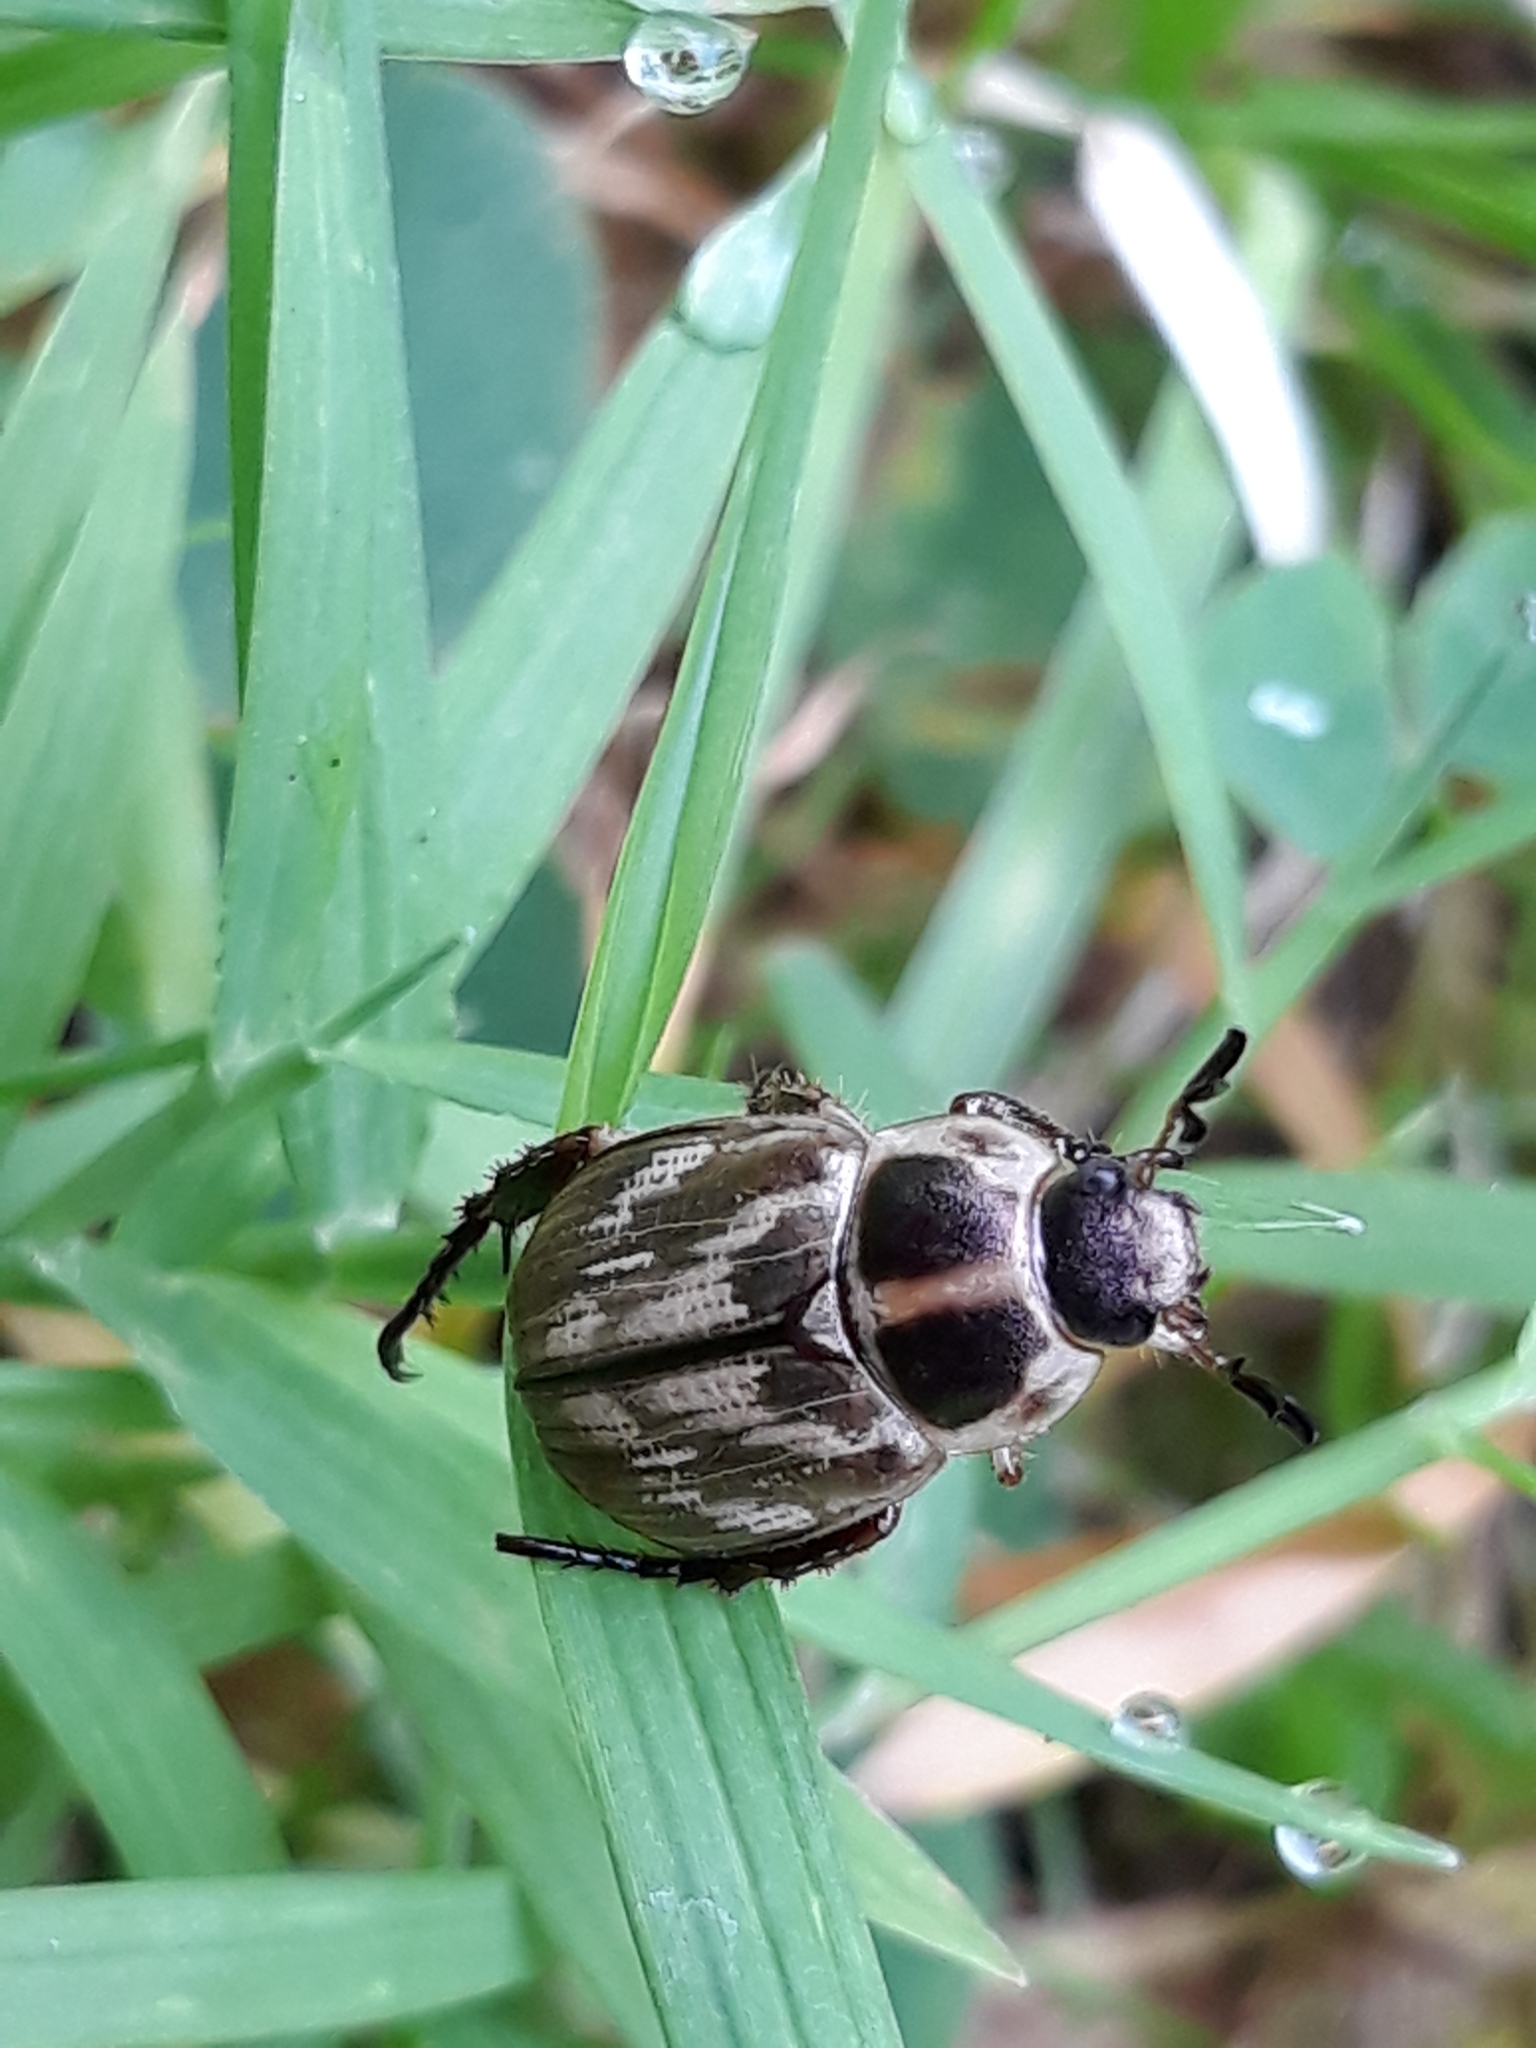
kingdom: Animalia
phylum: Arthropoda
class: Insecta
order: Coleoptera
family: Scarabaeidae
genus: Exomala
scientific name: Exomala orientalis
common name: Oriental beetle
